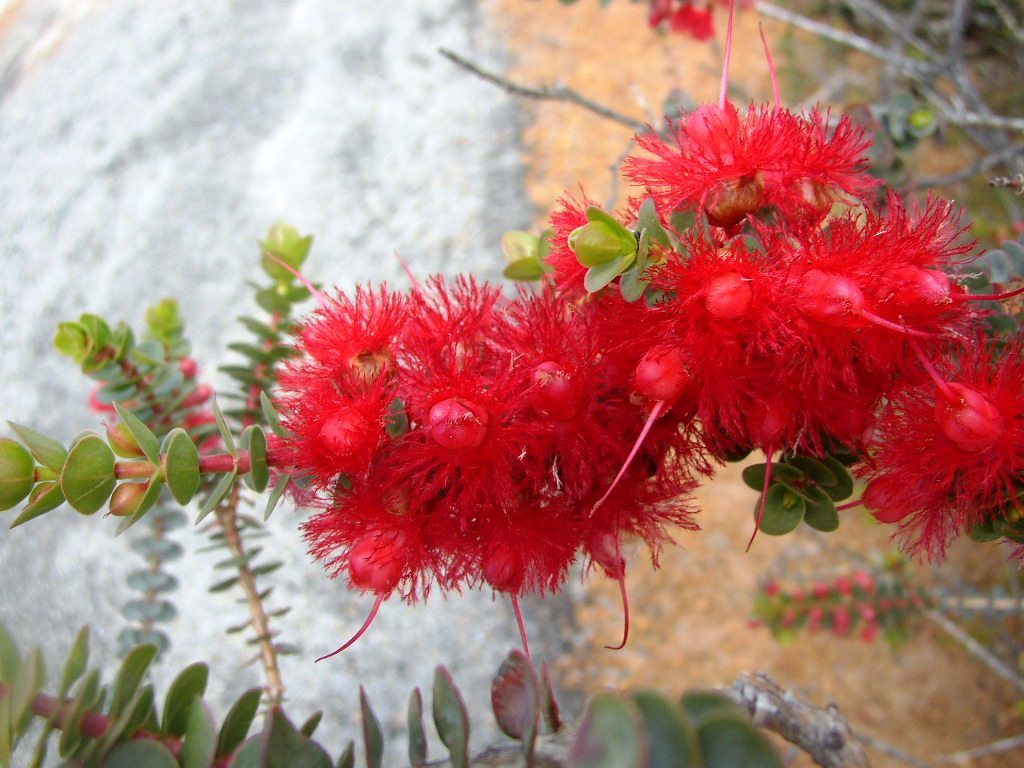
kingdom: Plantae
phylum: Tracheophyta
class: Magnoliopsida
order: Myrtales
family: Myrtaceae
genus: Verticordia
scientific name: Verticordia grandis
